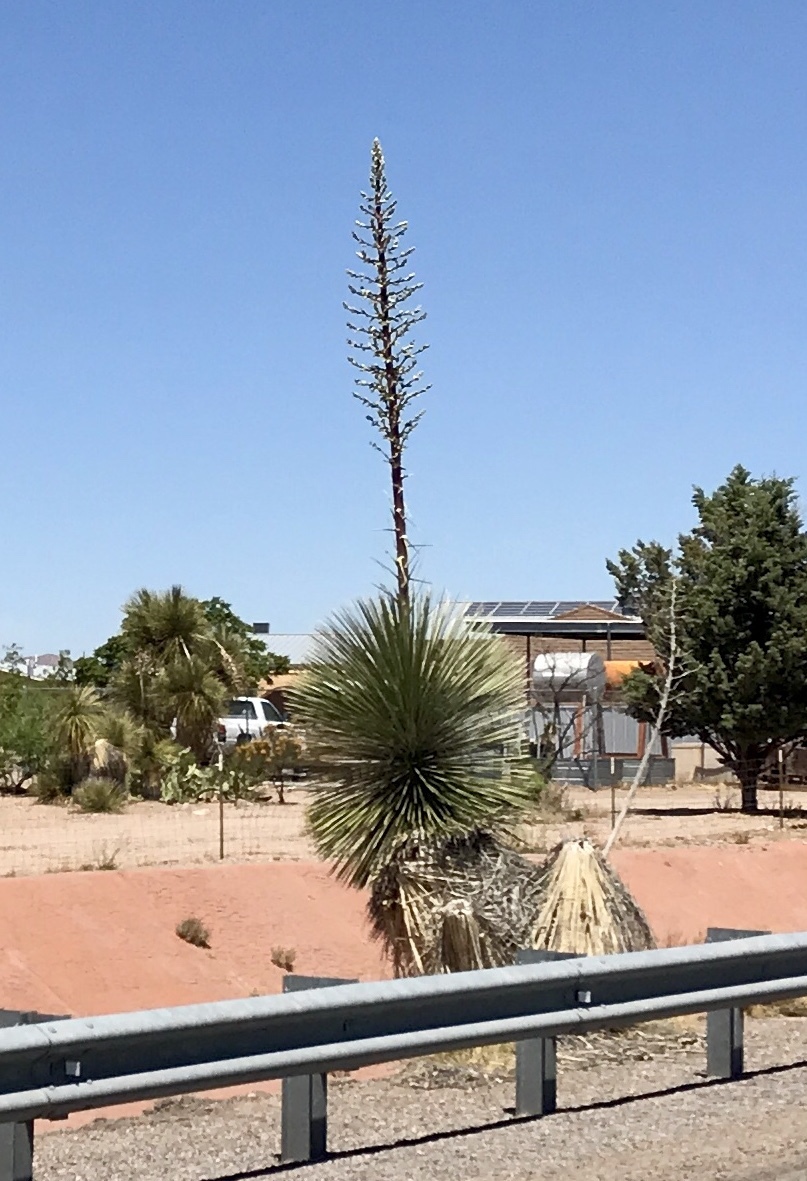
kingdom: Plantae
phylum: Tracheophyta
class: Liliopsida
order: Asparagales
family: Asparagaceae
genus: Yucca
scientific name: Yucca elata
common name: Palmella
